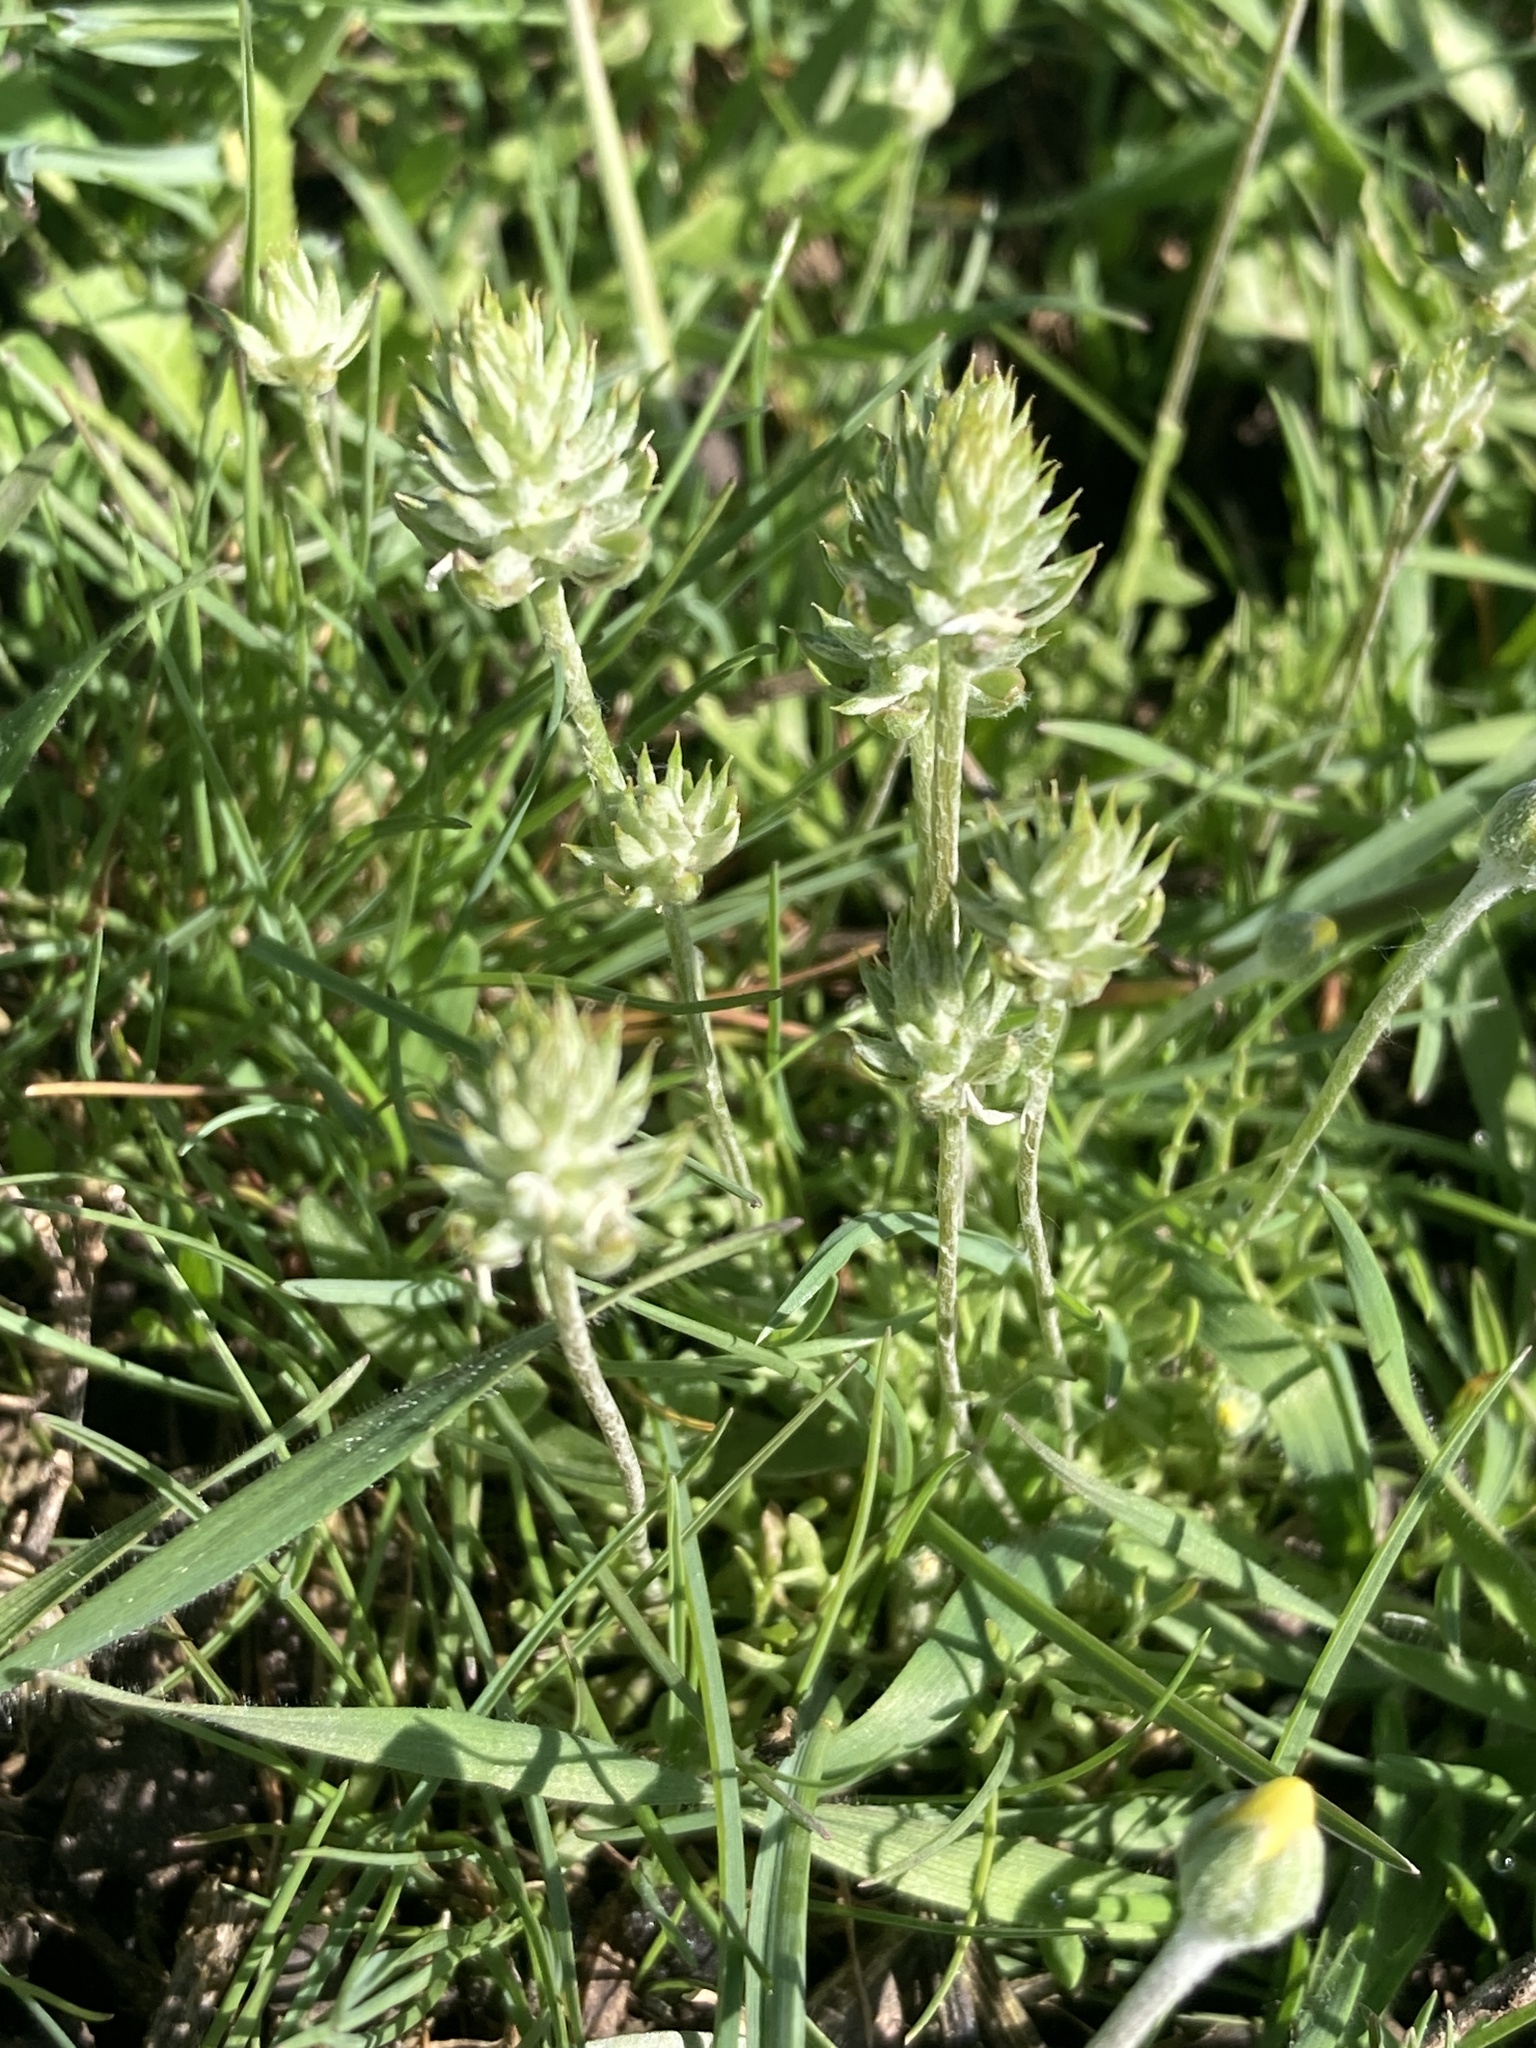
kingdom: Plantae
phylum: Tracheophyta
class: Magnoliopsida
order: Ranunculales
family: Ranunculaceae
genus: Ceratocephala
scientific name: Ceratocephala orthoceras
